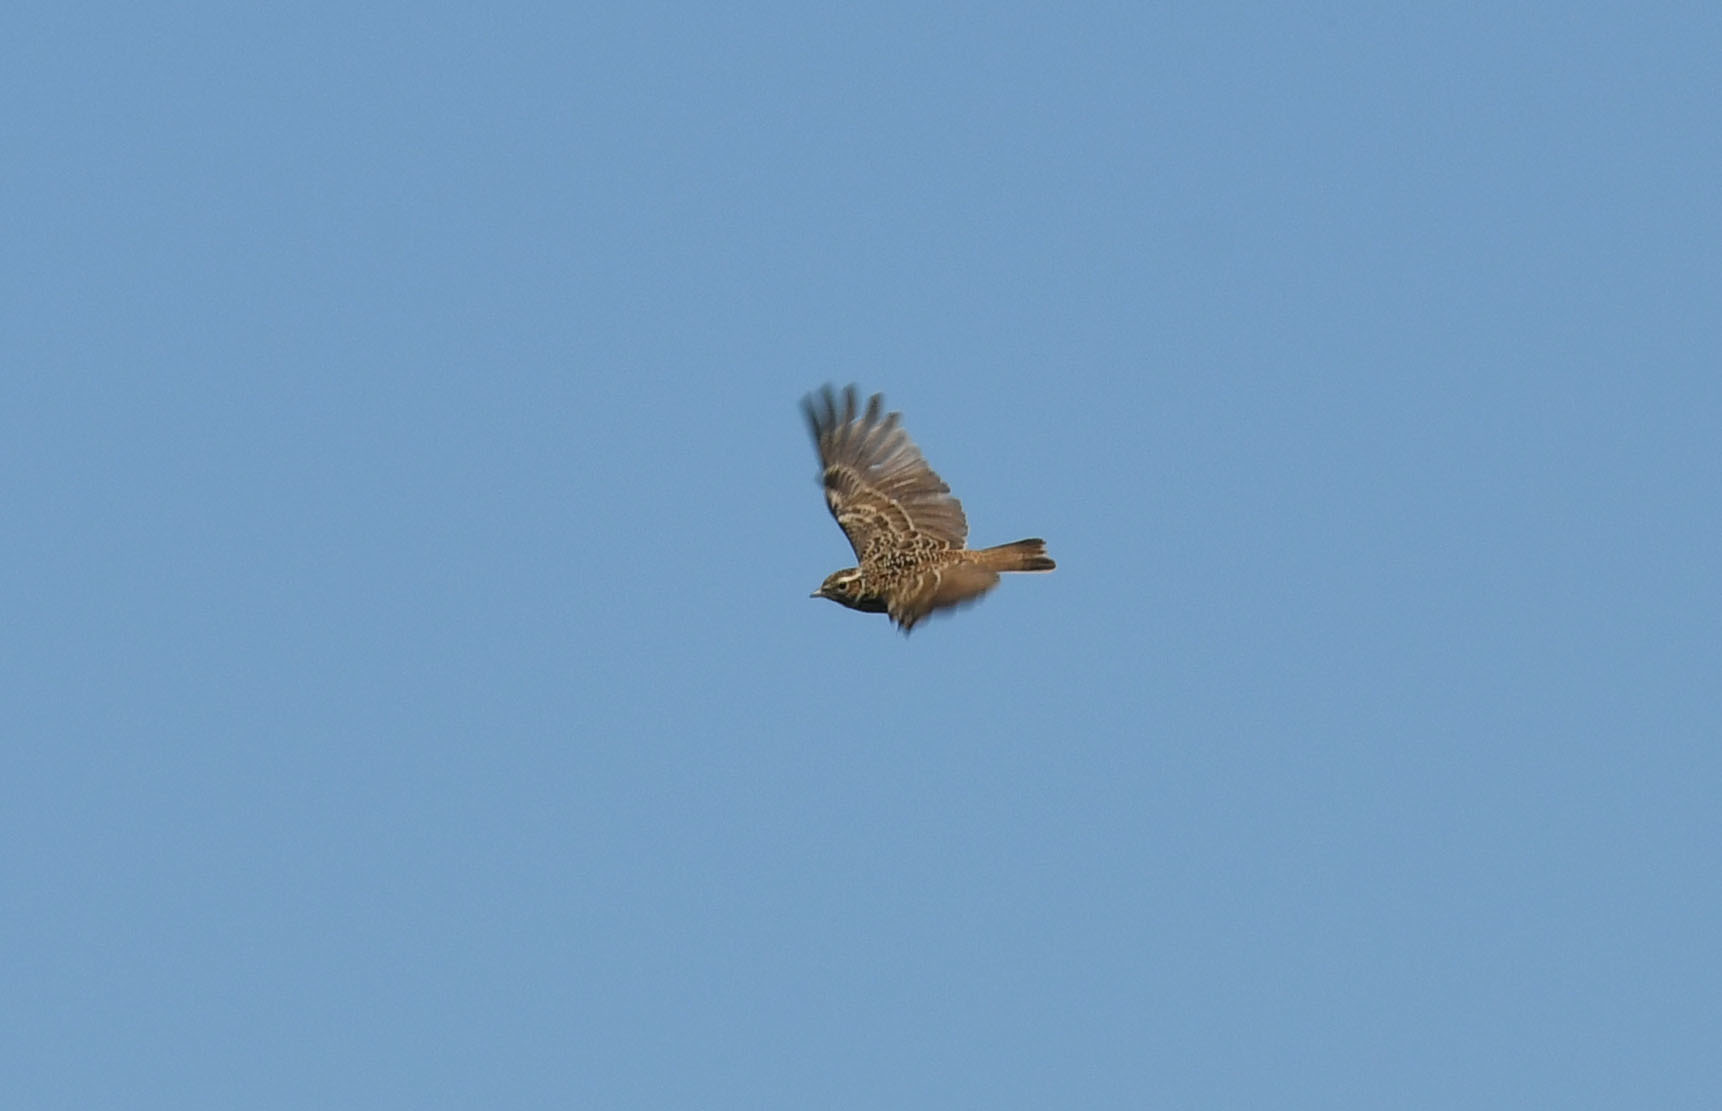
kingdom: Animalia
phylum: Chordata
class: Aves
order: Passeriformes
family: Alaudidae
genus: Lullula
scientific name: Lullula arborea
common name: Woodlark
